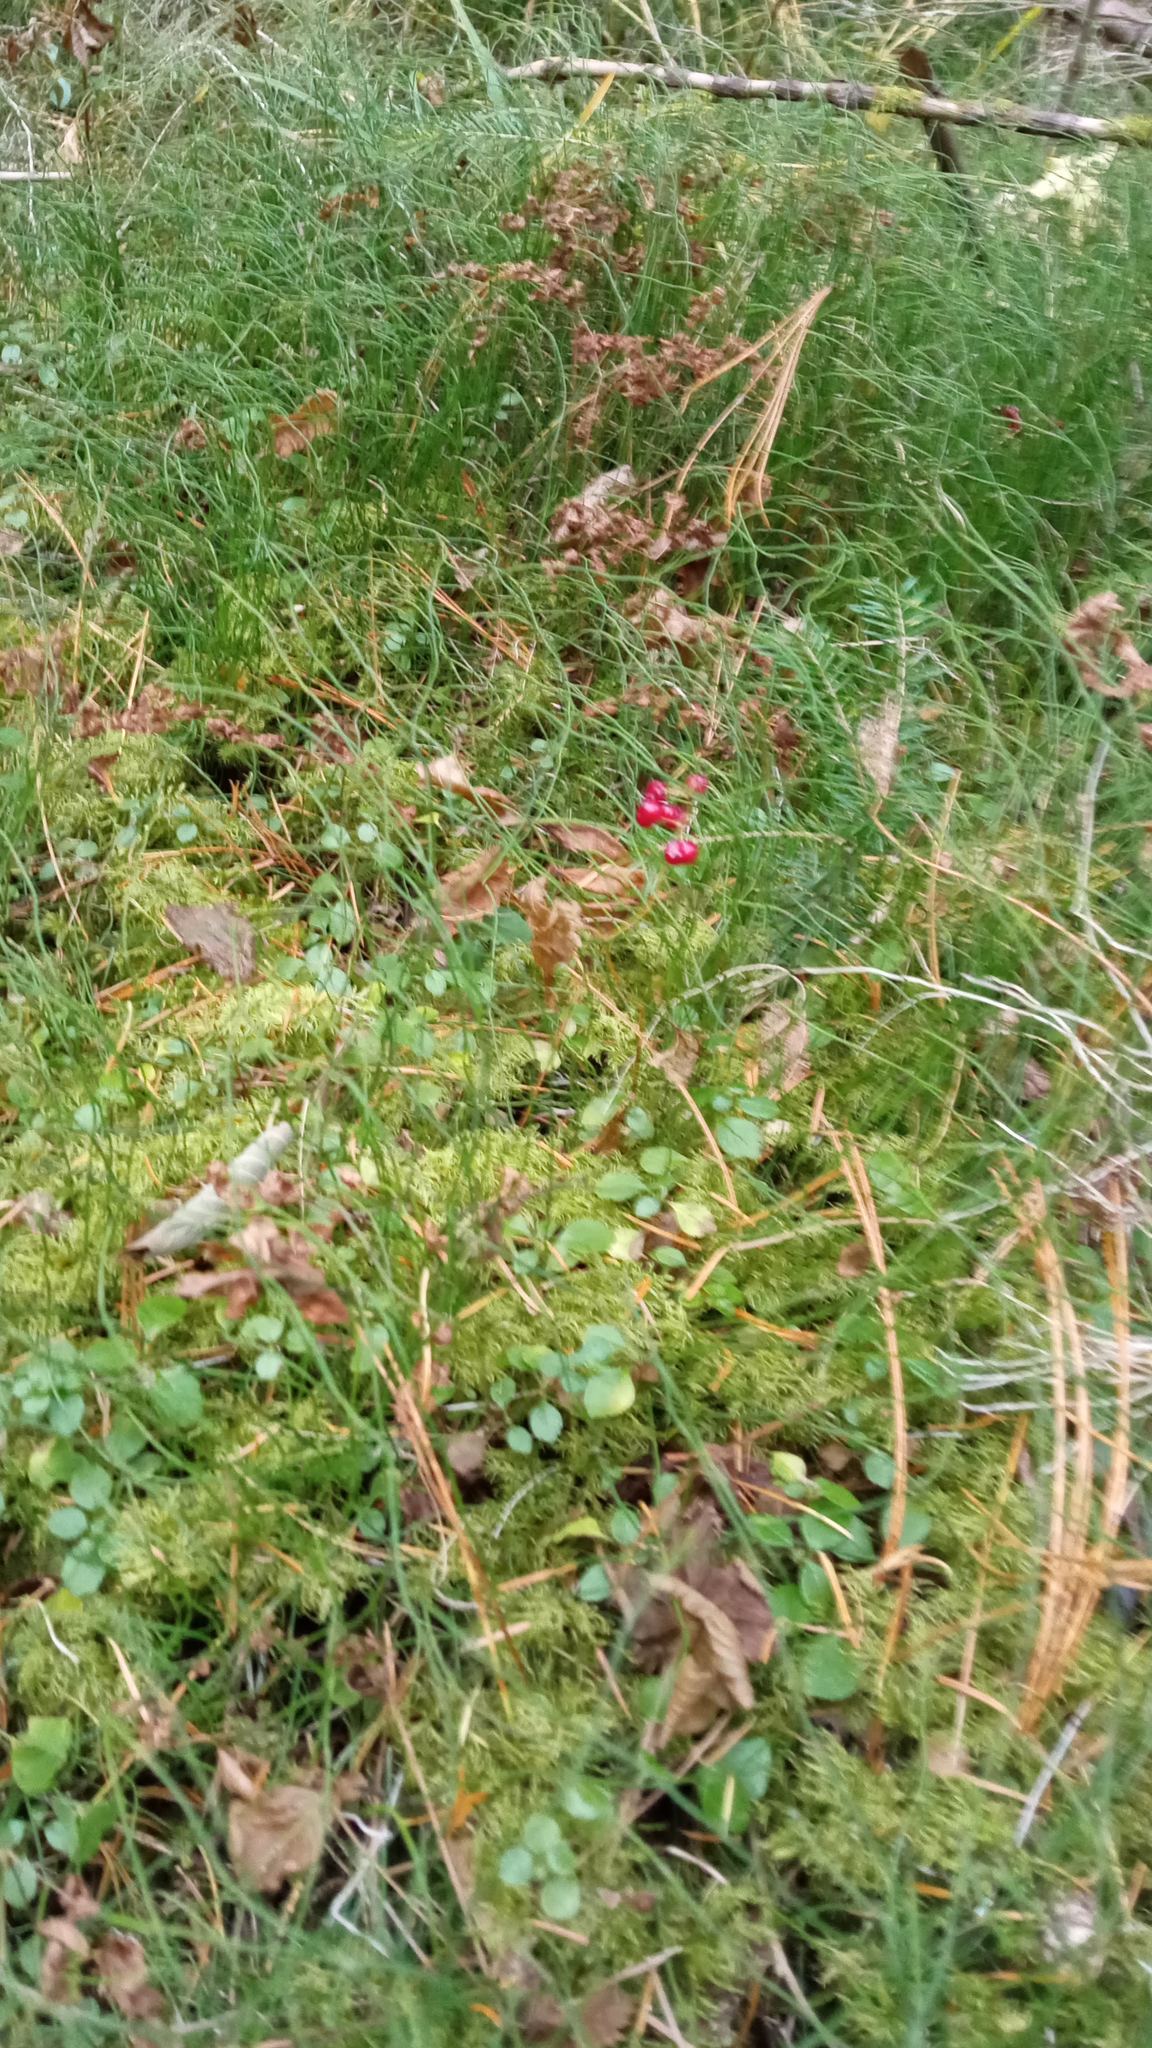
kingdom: Plantae
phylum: Tracheophyta
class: Polypodiopsida
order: Equisetales
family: Equisetaceae
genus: Equisetum
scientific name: Equisetum scirpoides
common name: Delicate horsetail
